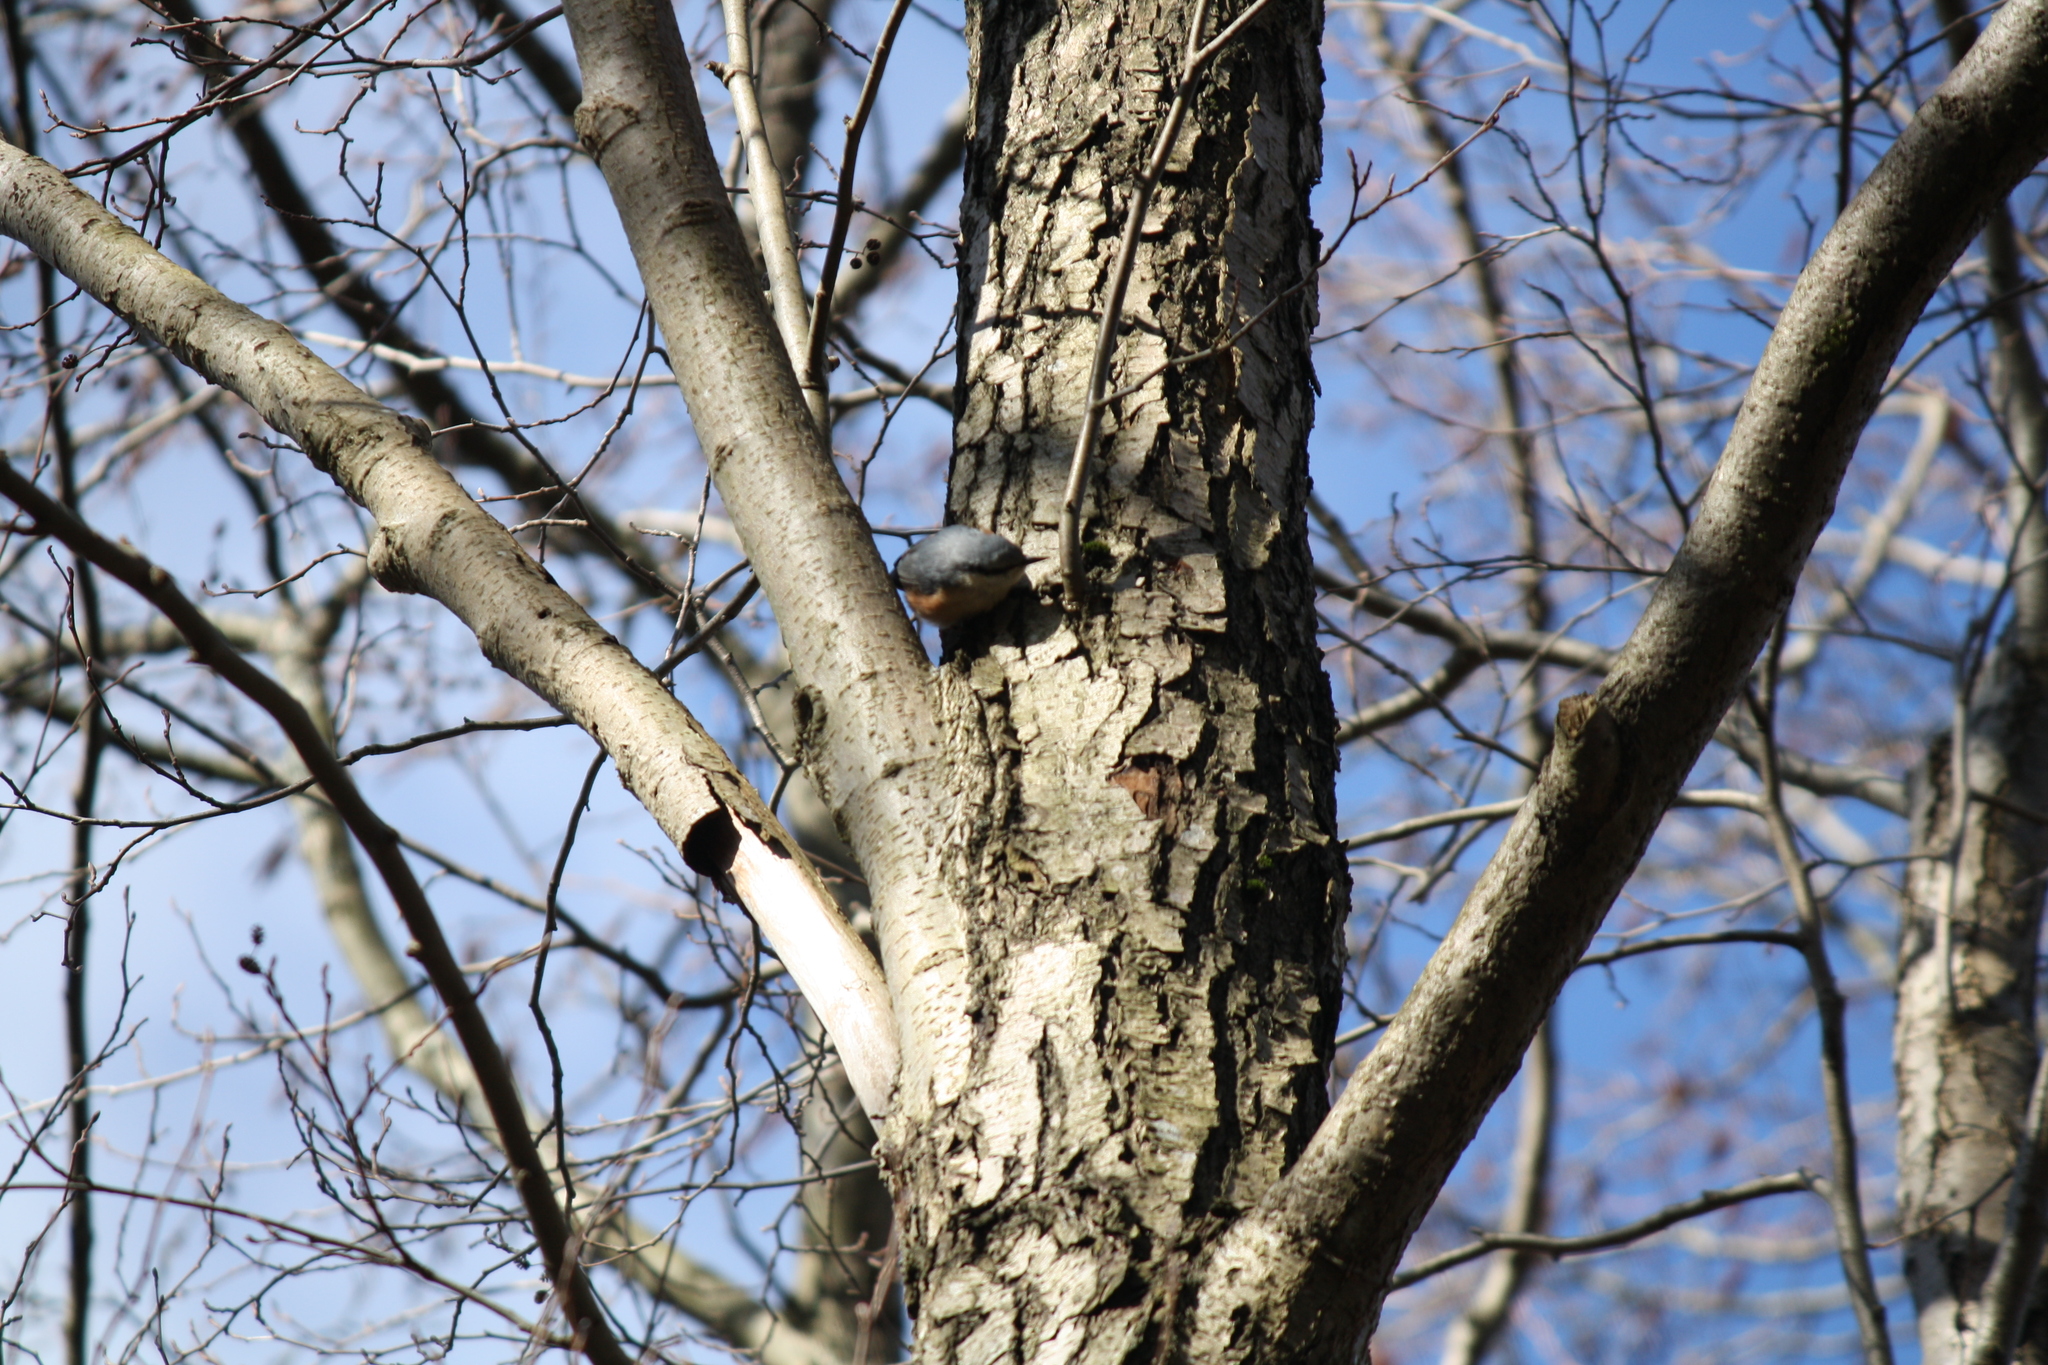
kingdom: Animalia
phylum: Chordata
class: Aves
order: Passeriformes
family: Sittidae
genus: Sitta
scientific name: Sitta europaea
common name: Eurasian nuthatch
